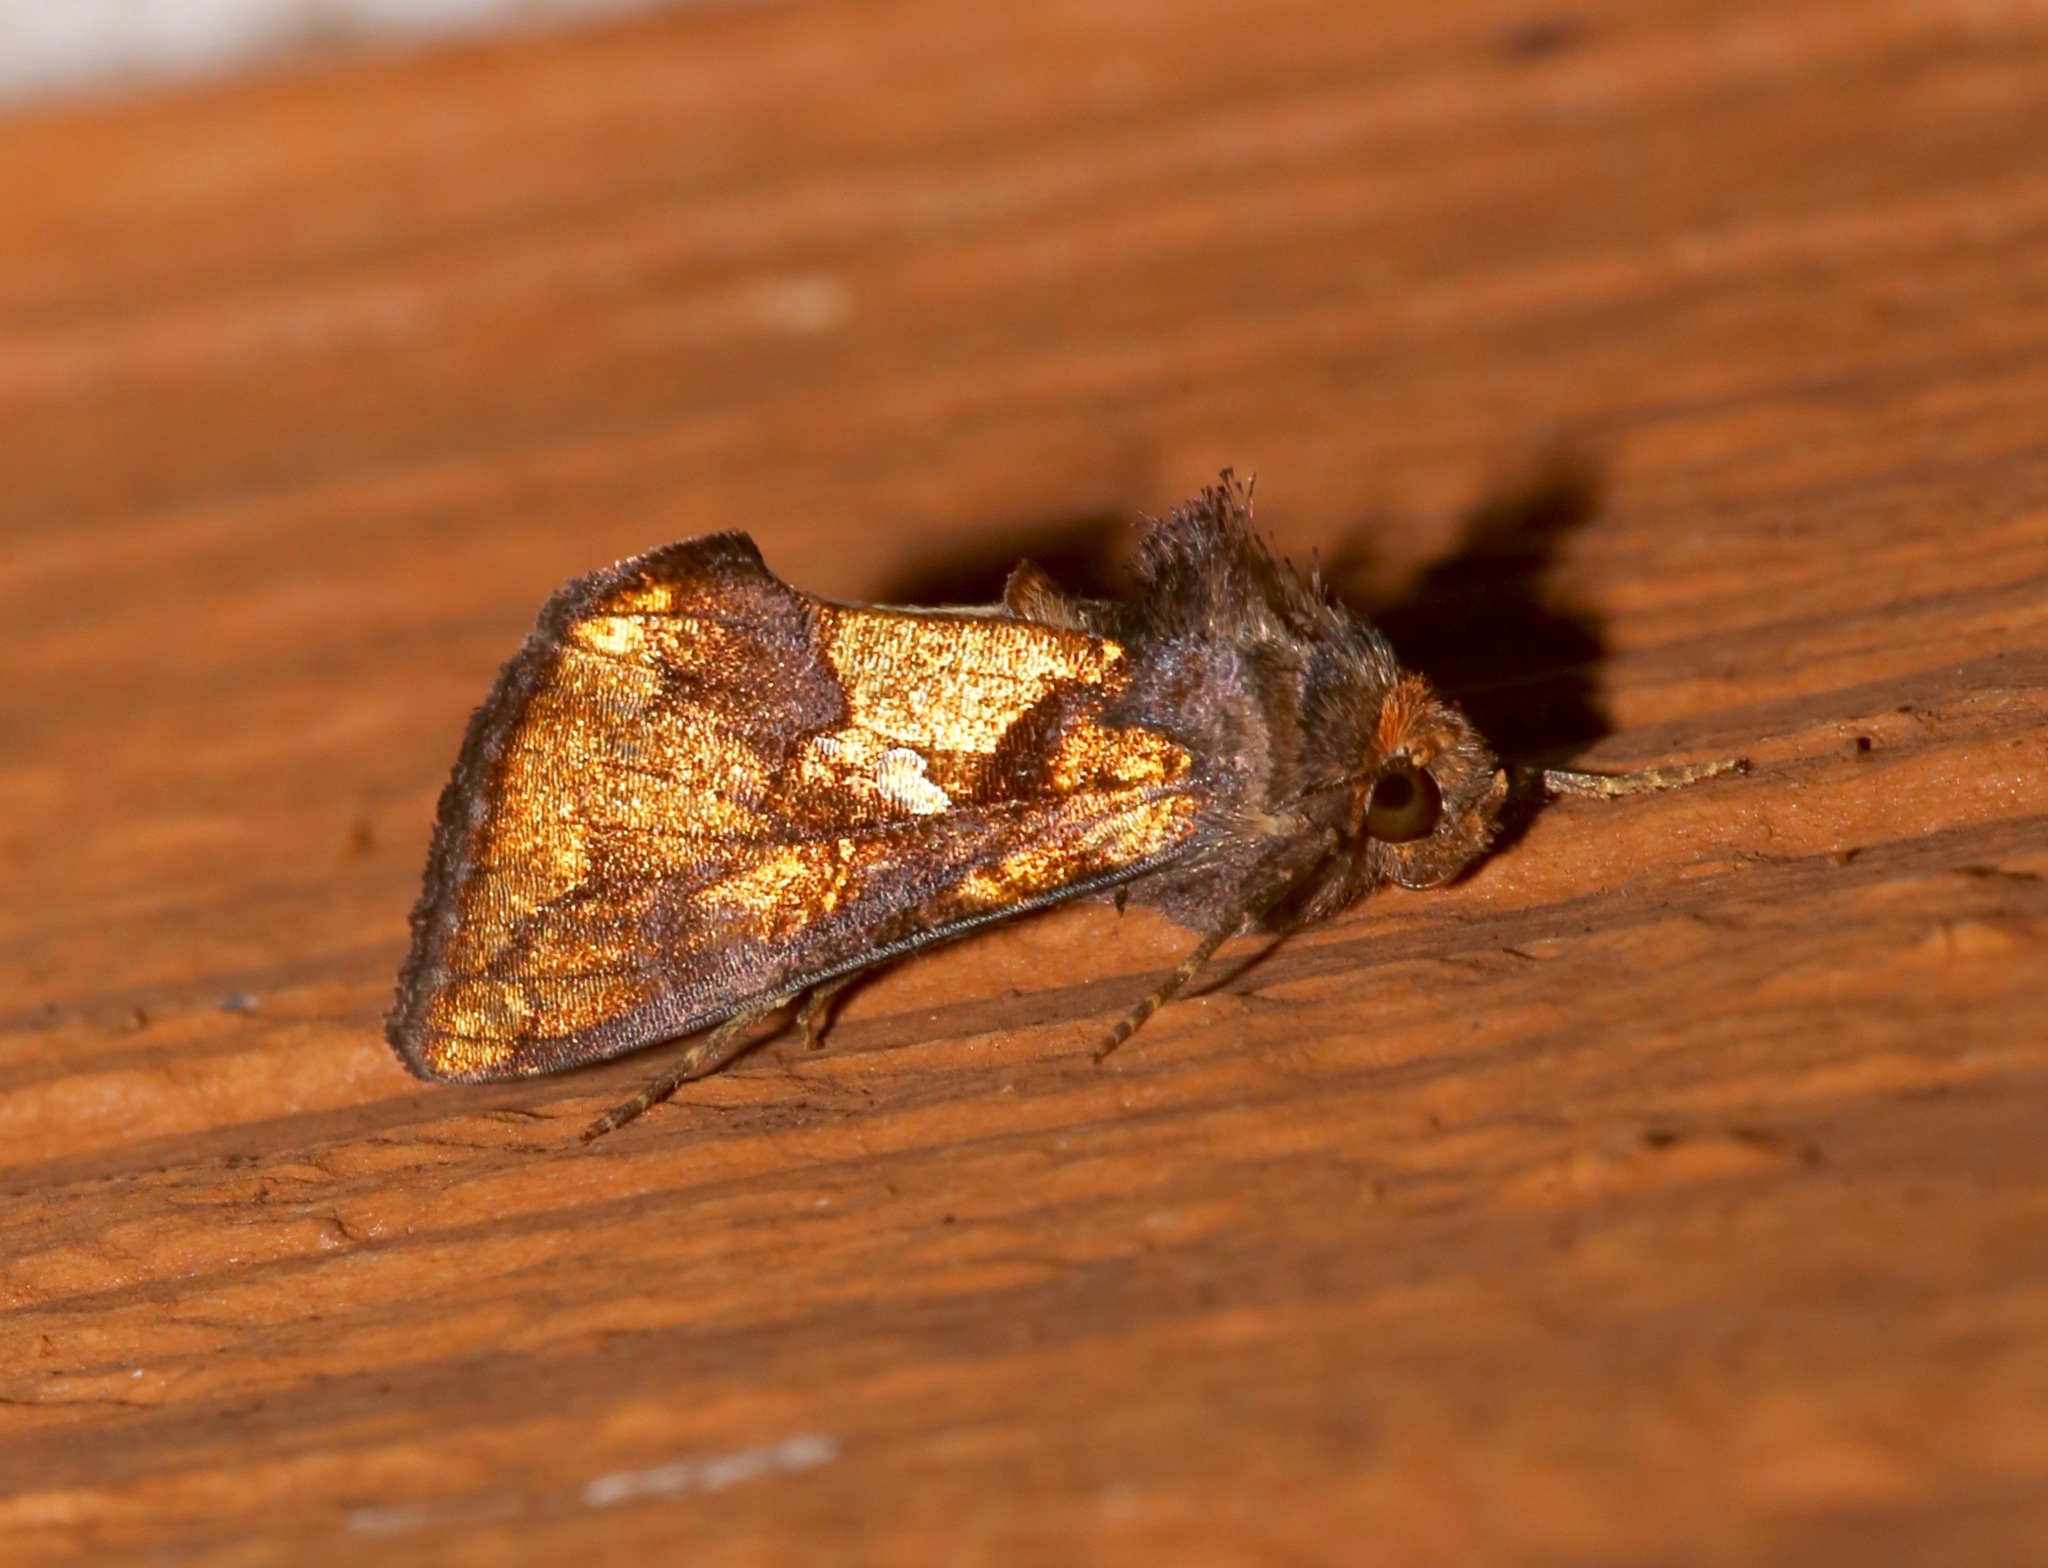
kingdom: Animalia
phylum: Arthropoda
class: Insecta
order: Lepidoptera
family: Noctuidae
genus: Argyrogramma
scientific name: Argyrogramma verruca
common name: Golden looper moth
